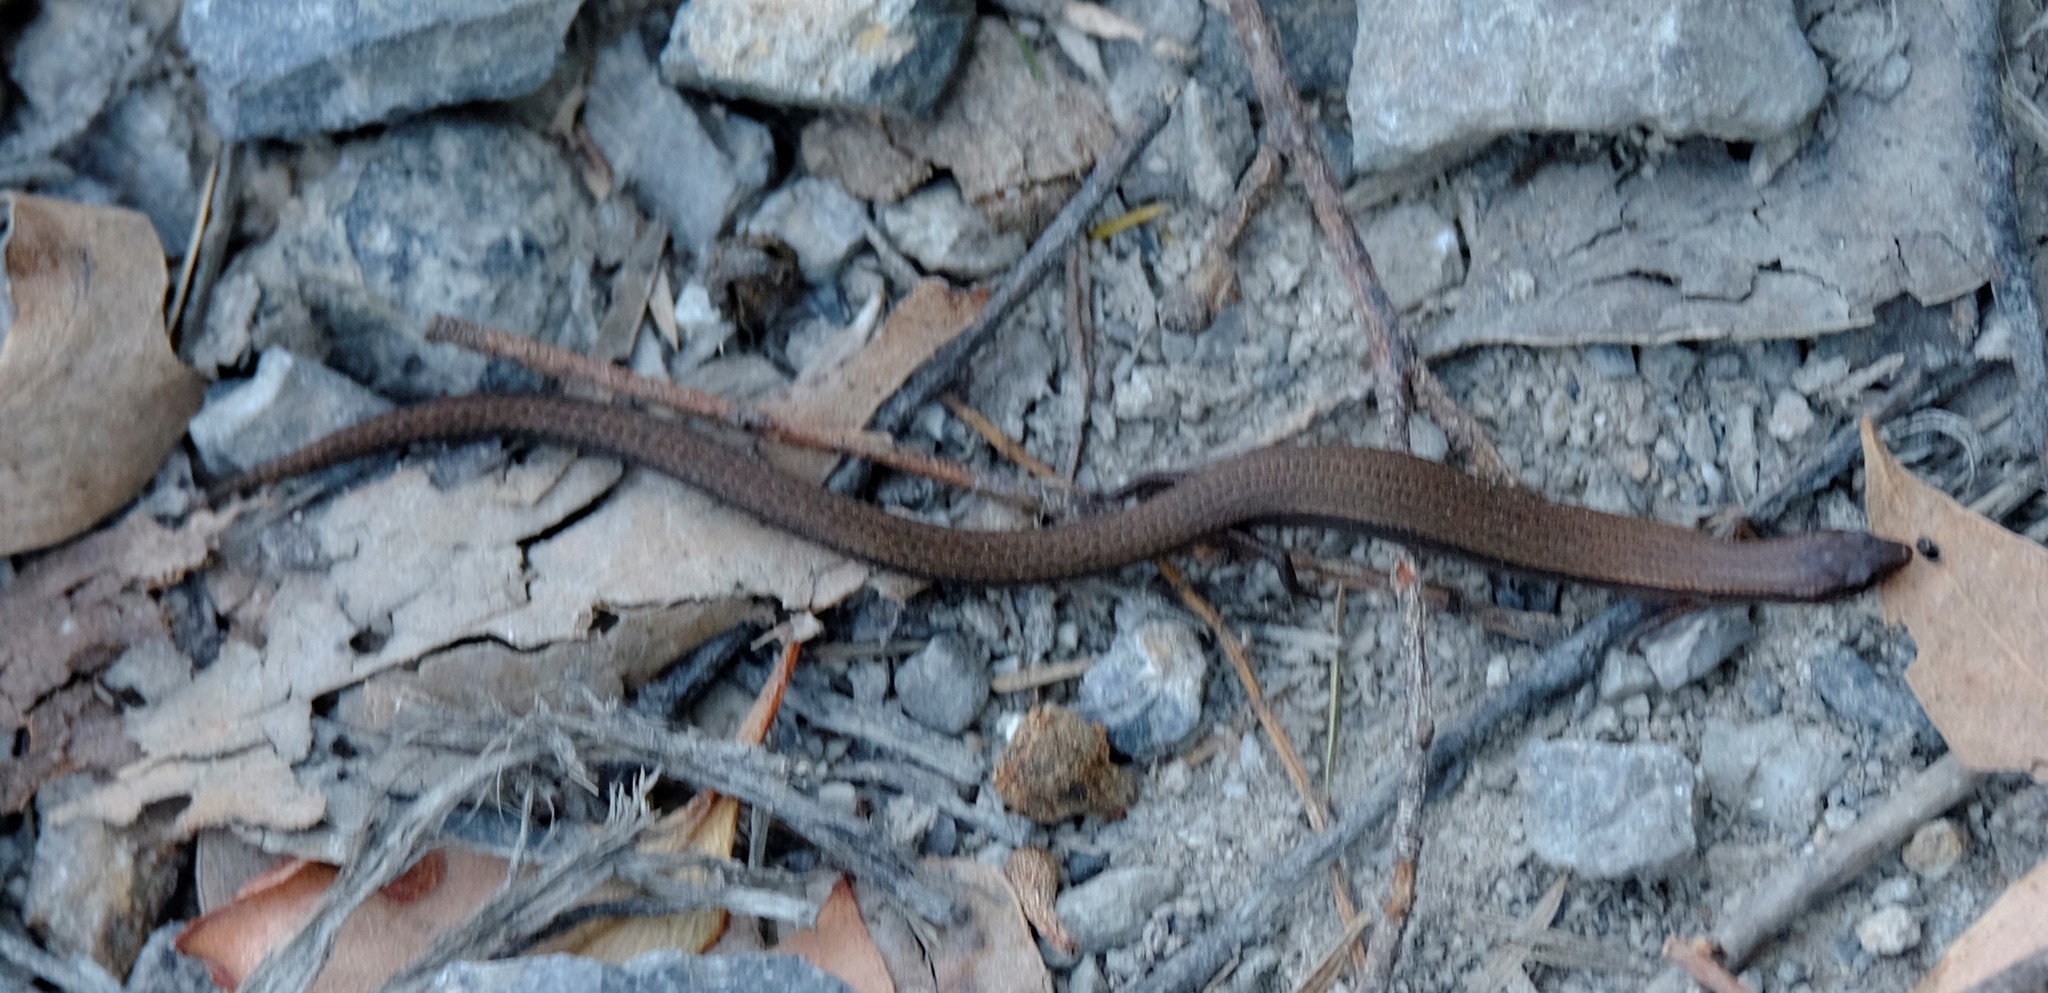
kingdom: Animalia
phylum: Chordata
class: Squamata
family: Scincidae
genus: Anepischetosia
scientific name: Anepischetosia maccoyi
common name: Highlands forest-skink
